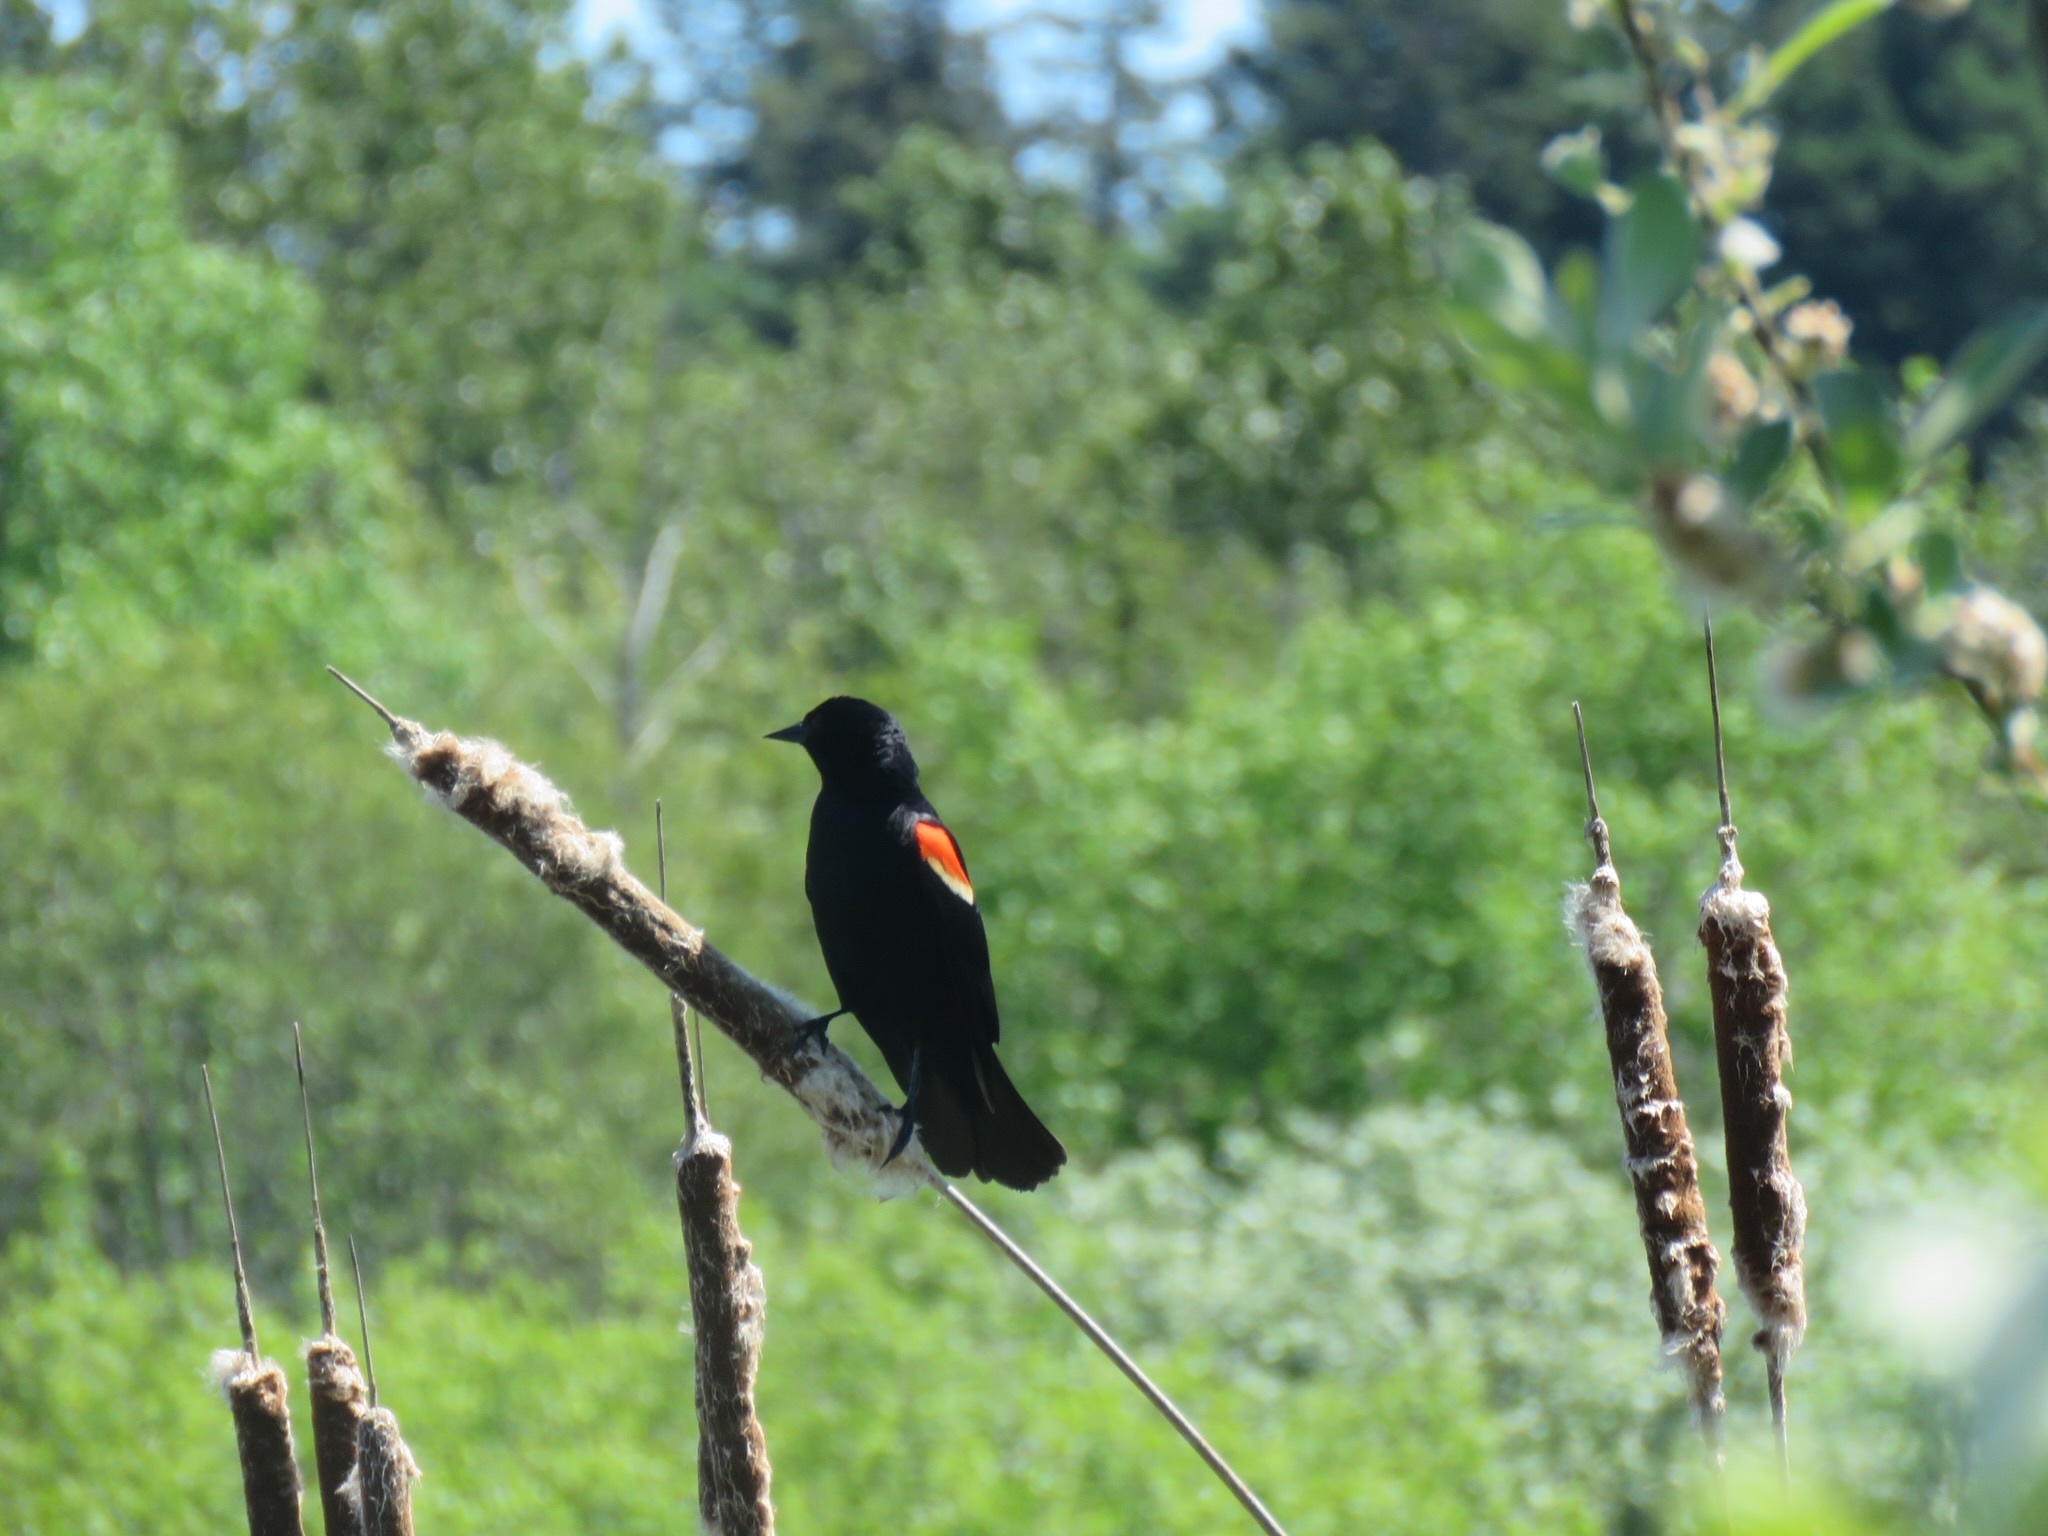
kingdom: Animalia
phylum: Chordata
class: Aves
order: Passeriformes
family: Icteridae
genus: Agelaius
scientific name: Agelaius phoeniceus
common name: Red-winged blackbird
